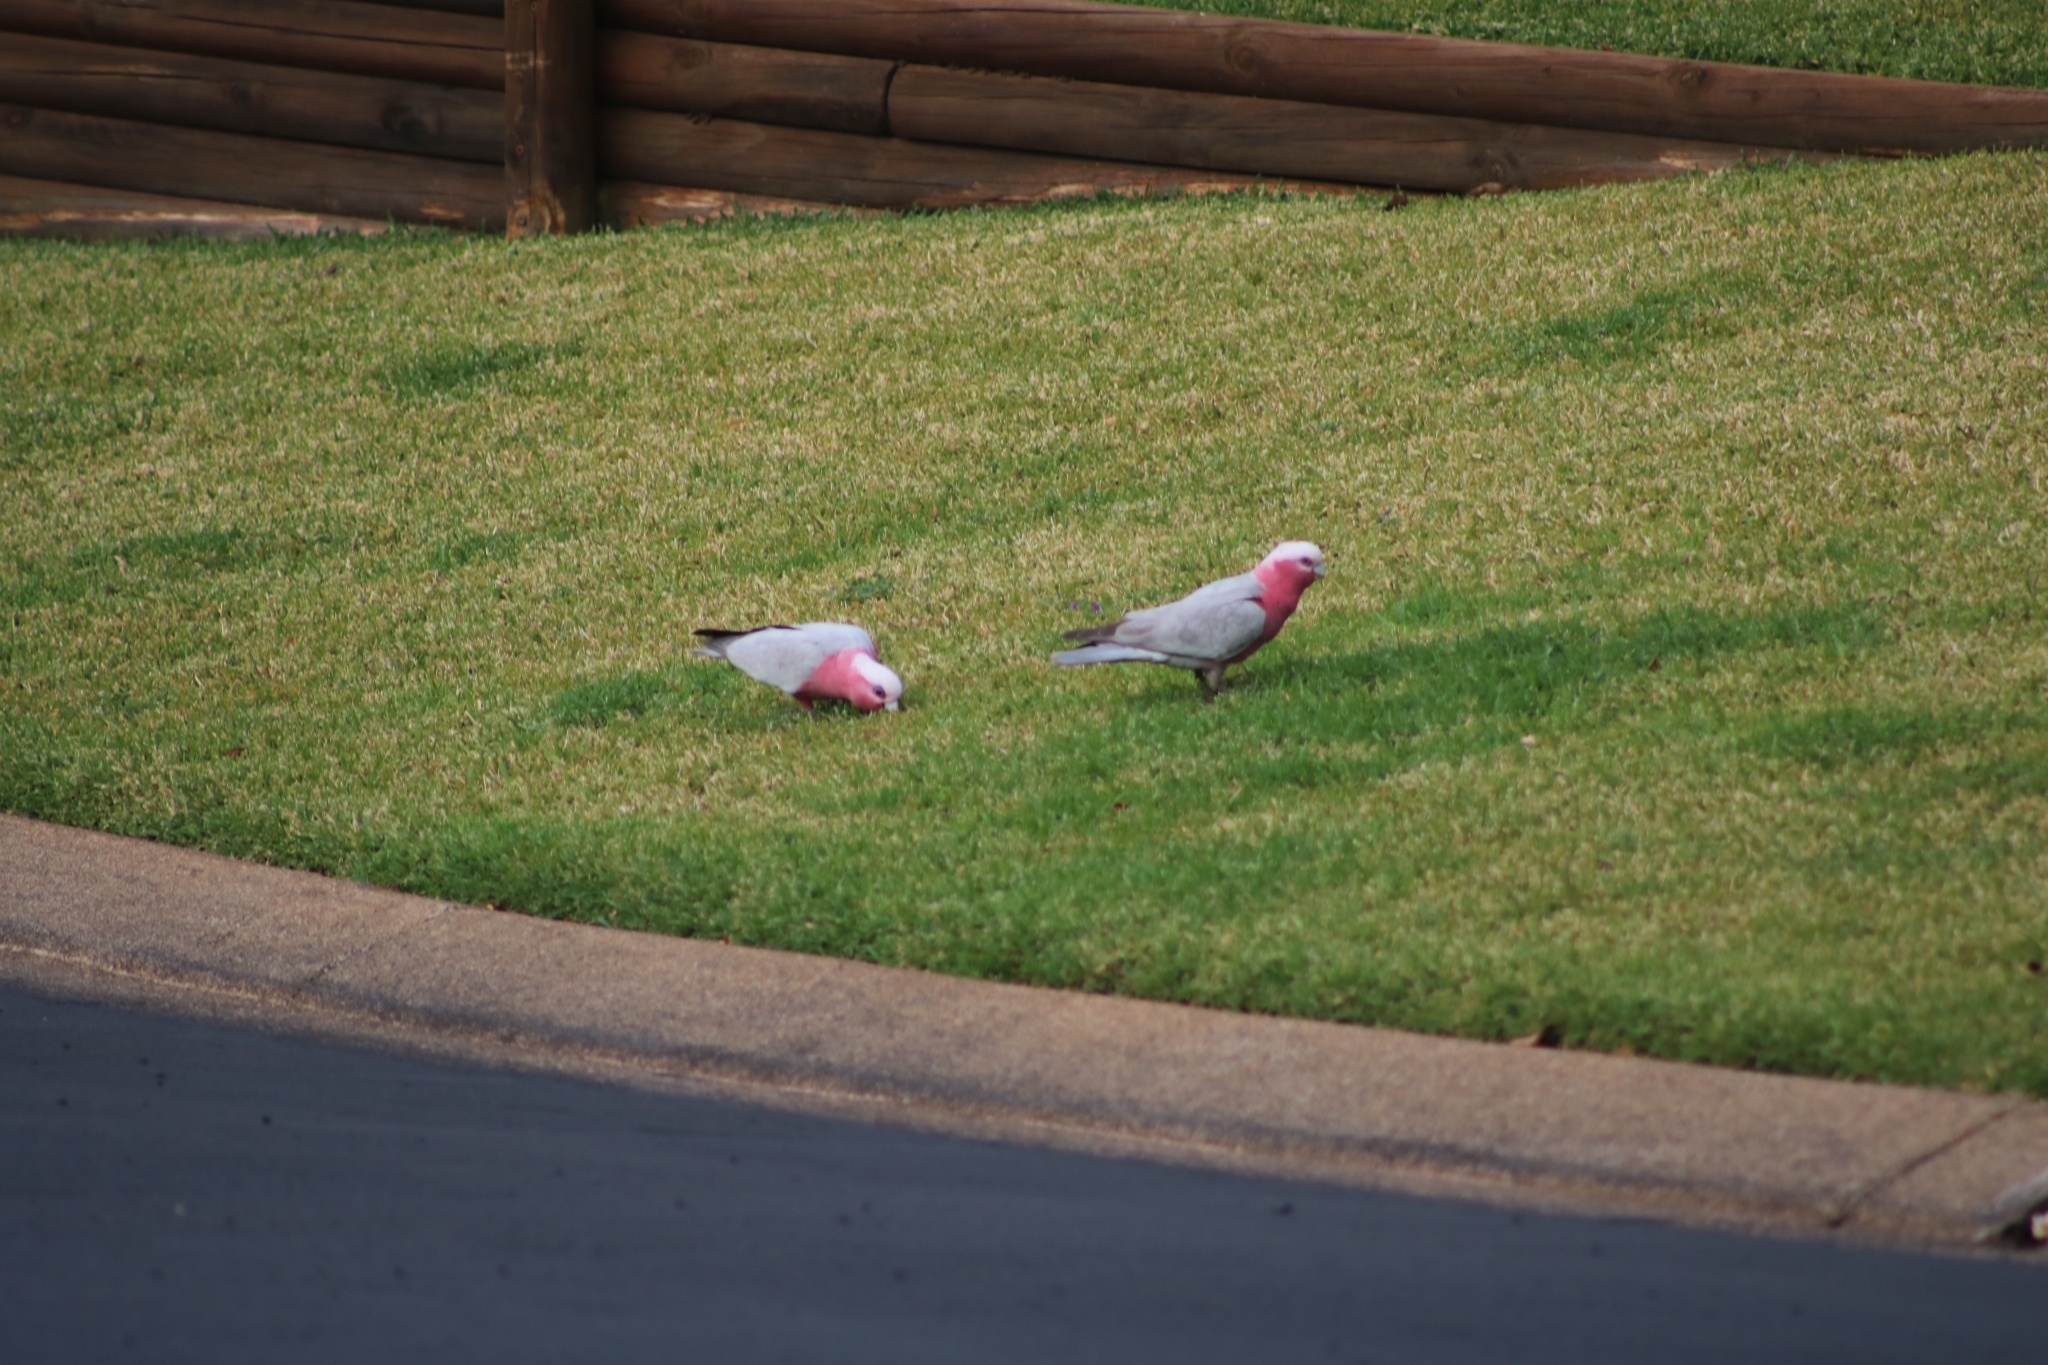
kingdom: Animalia
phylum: Chordata
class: Aves
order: Psittaciformes
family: Psittacidae
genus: Eolophus
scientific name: Eolophus roseicapilla
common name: Galah
